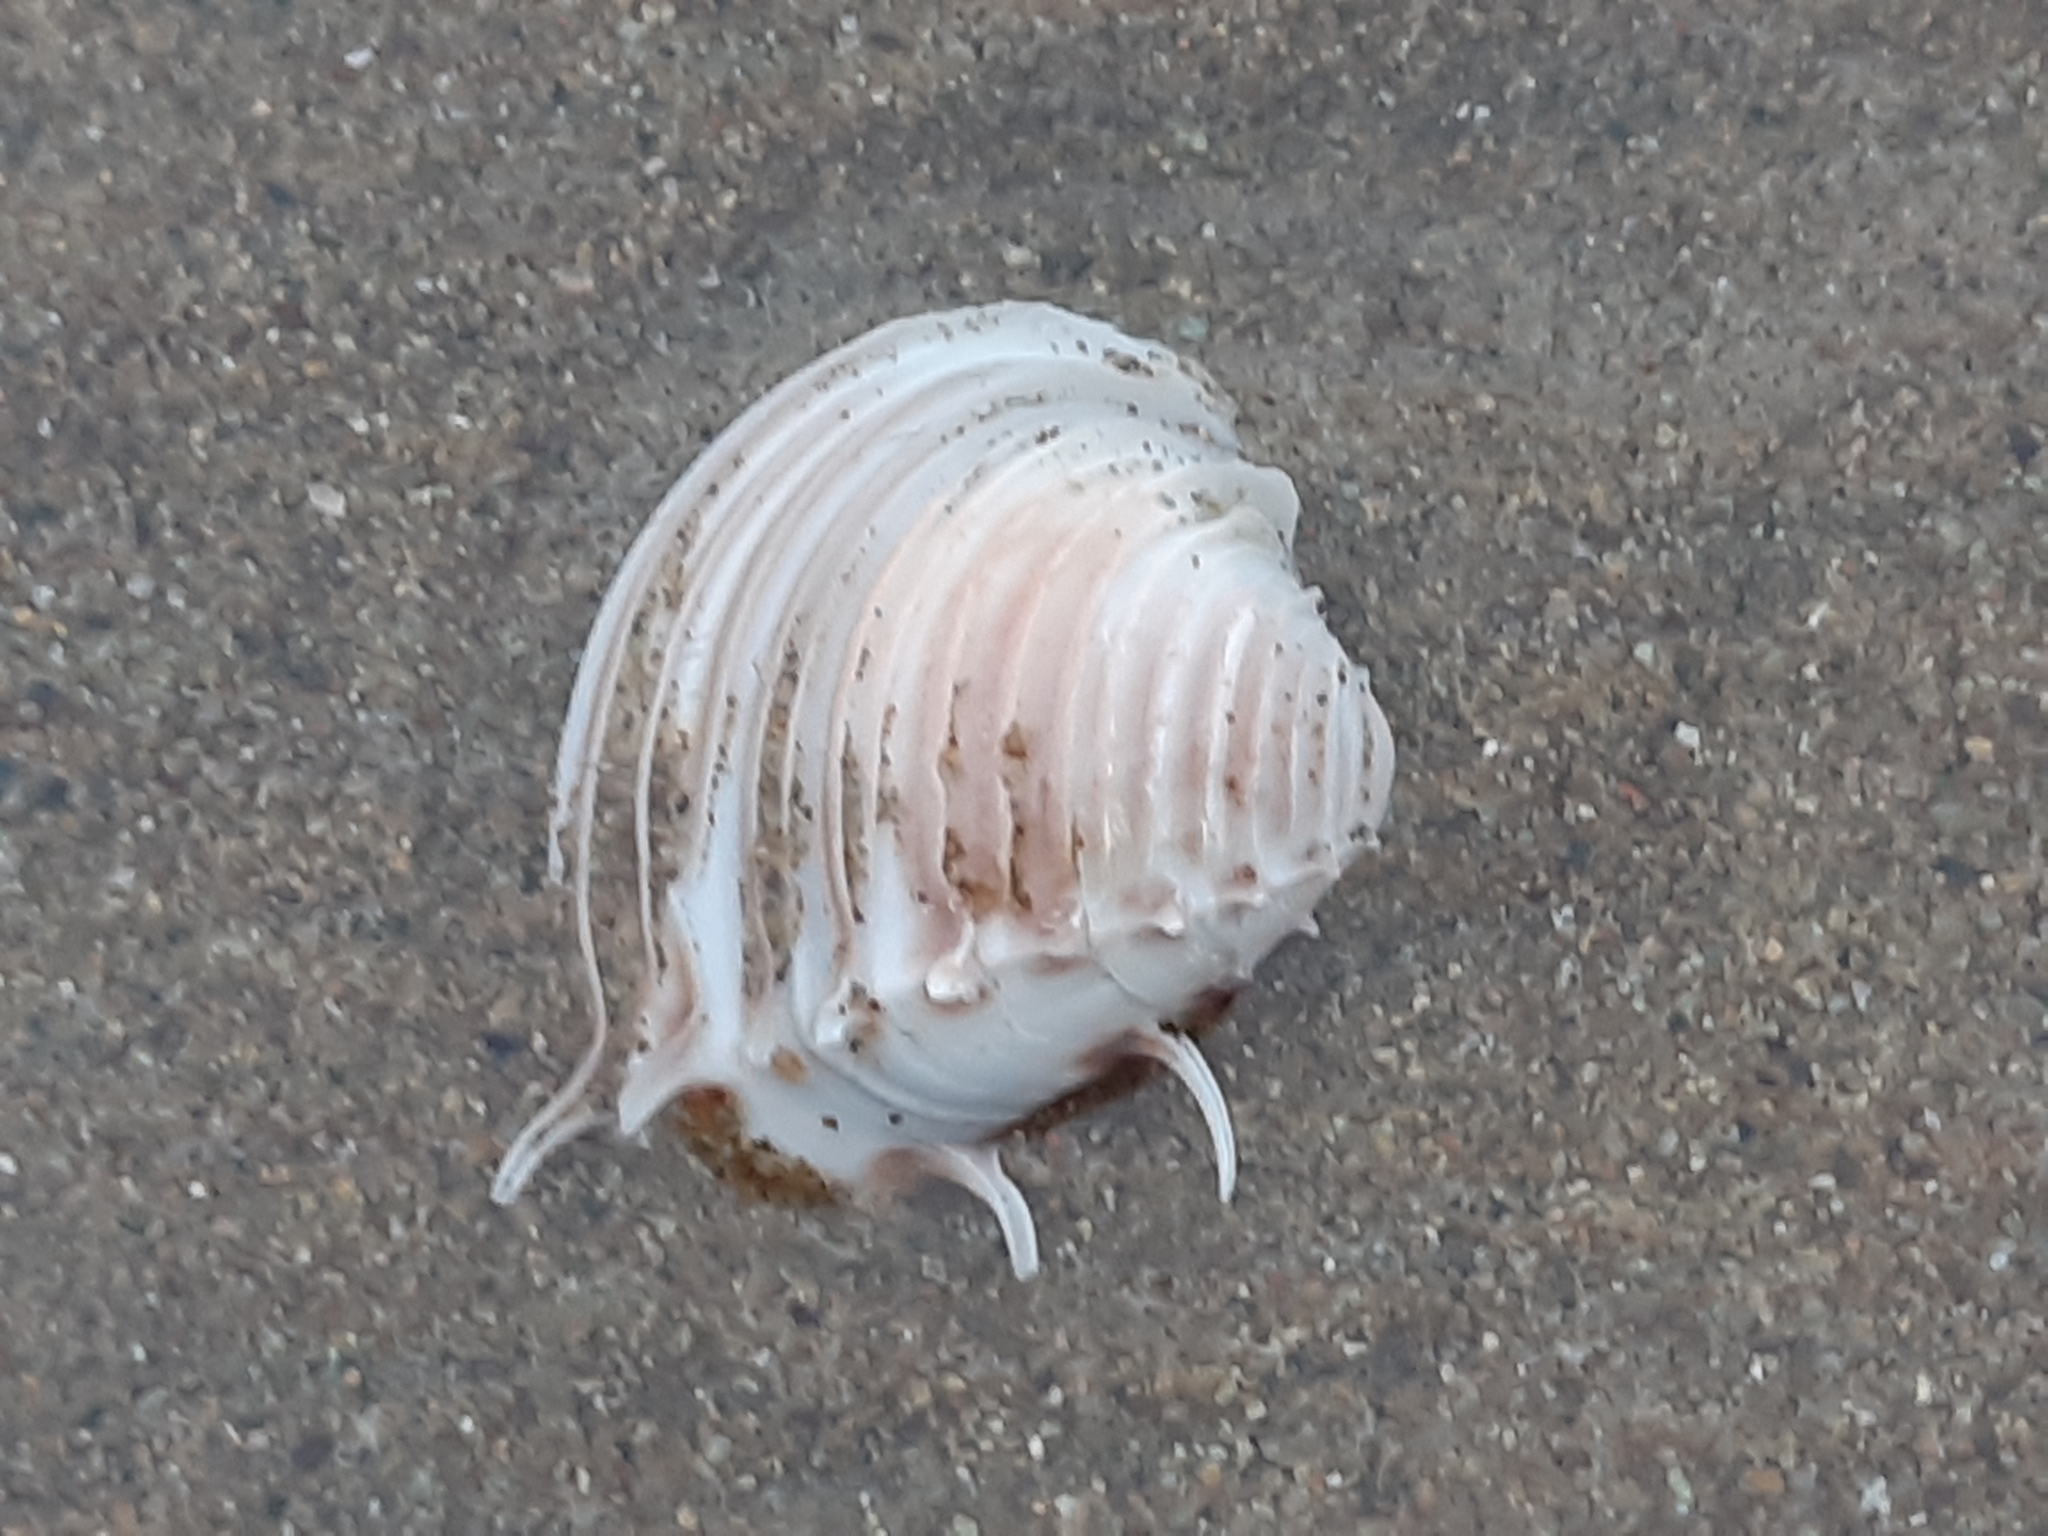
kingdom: Animalia
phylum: Mollusca
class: Bivalvia
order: Venerida
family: Veneridae
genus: Hysteroconcha
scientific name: Hysteroconcha lupanaria
